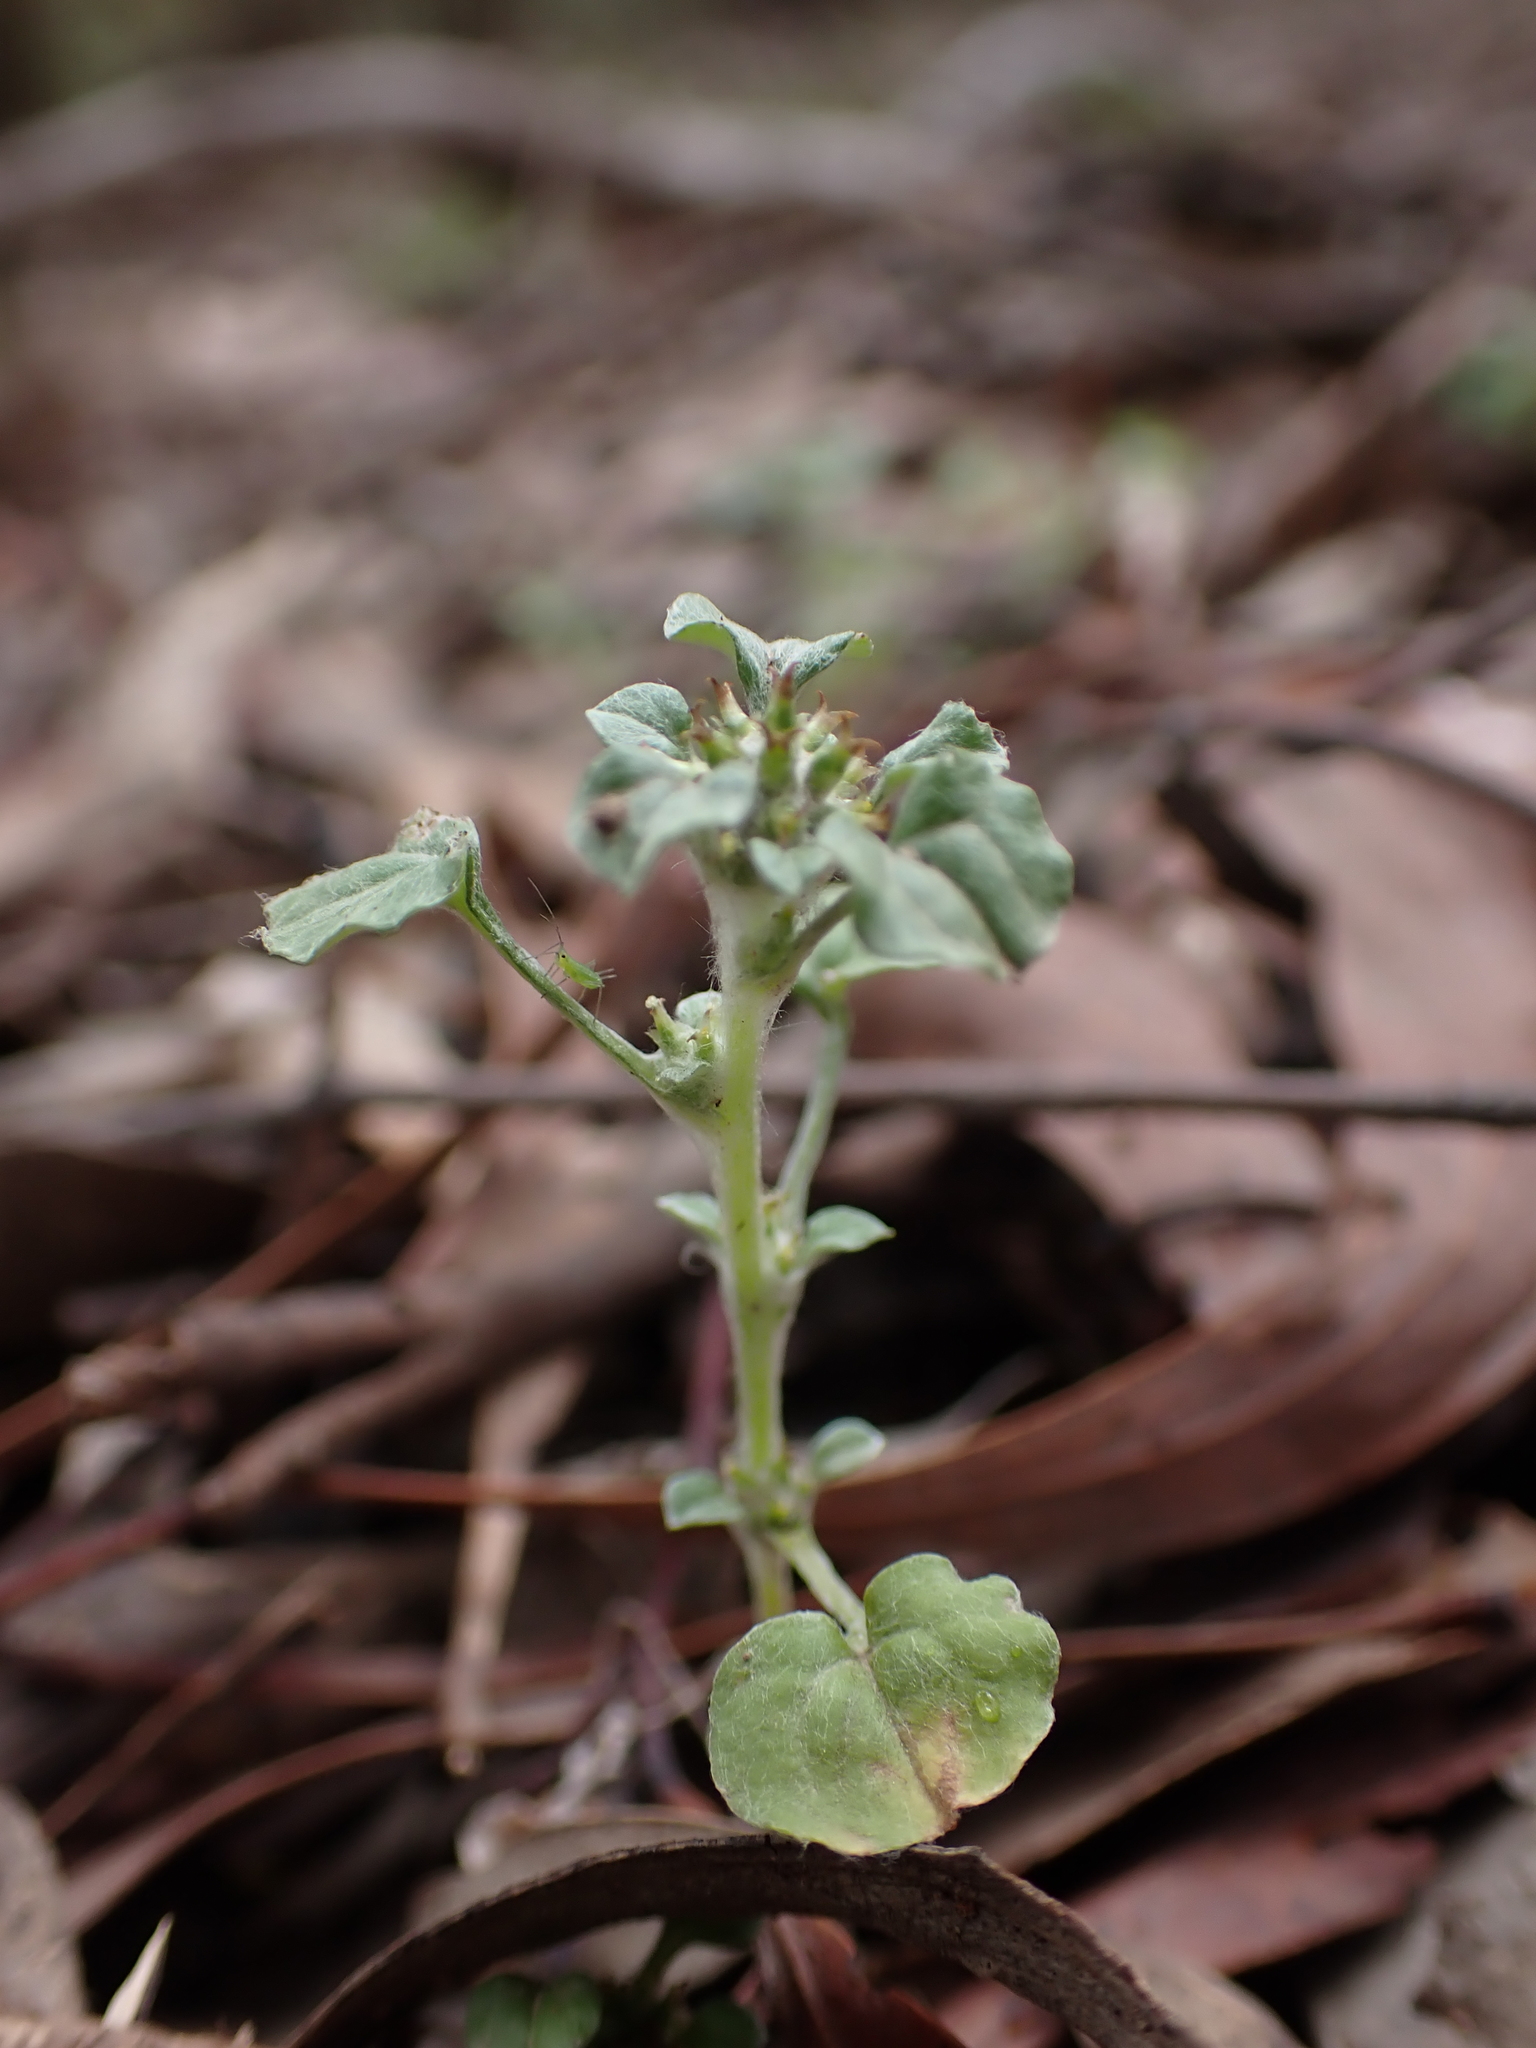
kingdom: Plantae
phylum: Tracheophyta
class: Magnoliopsida
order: Asterales
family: Asteraceae
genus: Stuartina
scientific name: Stuartina muelleri
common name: Spoon-leaved cudweed
